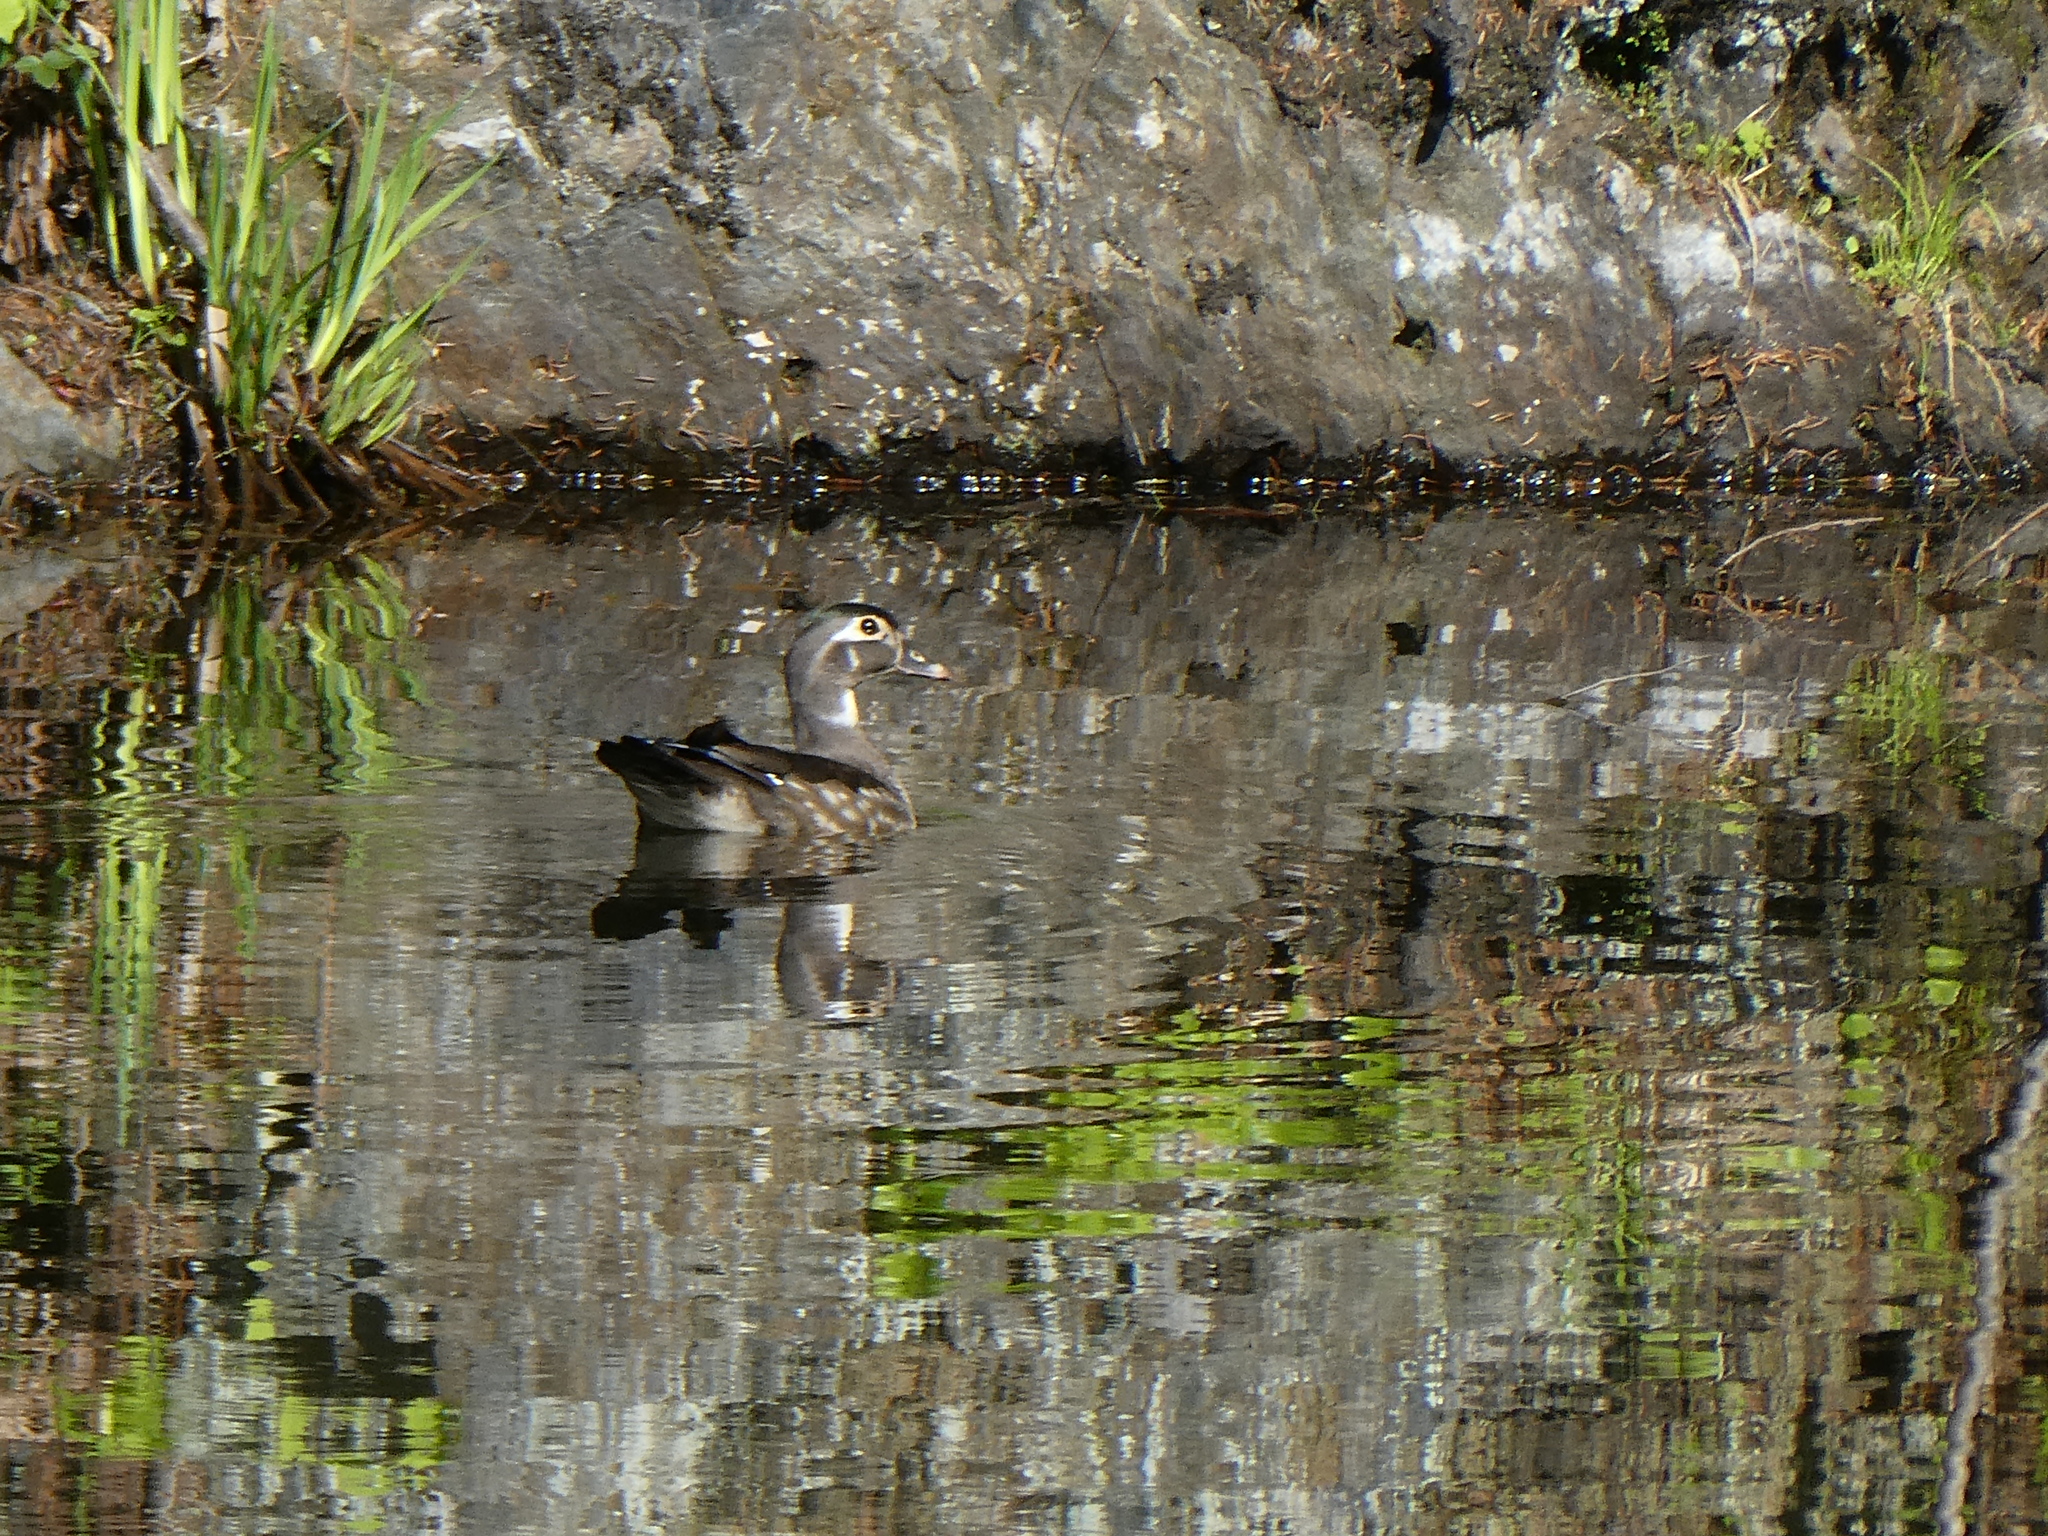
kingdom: Animalia
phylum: Chordata
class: Aves
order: Anseriformes
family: Anatidae
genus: Aix
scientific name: Aix sponsa
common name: Wood duck
